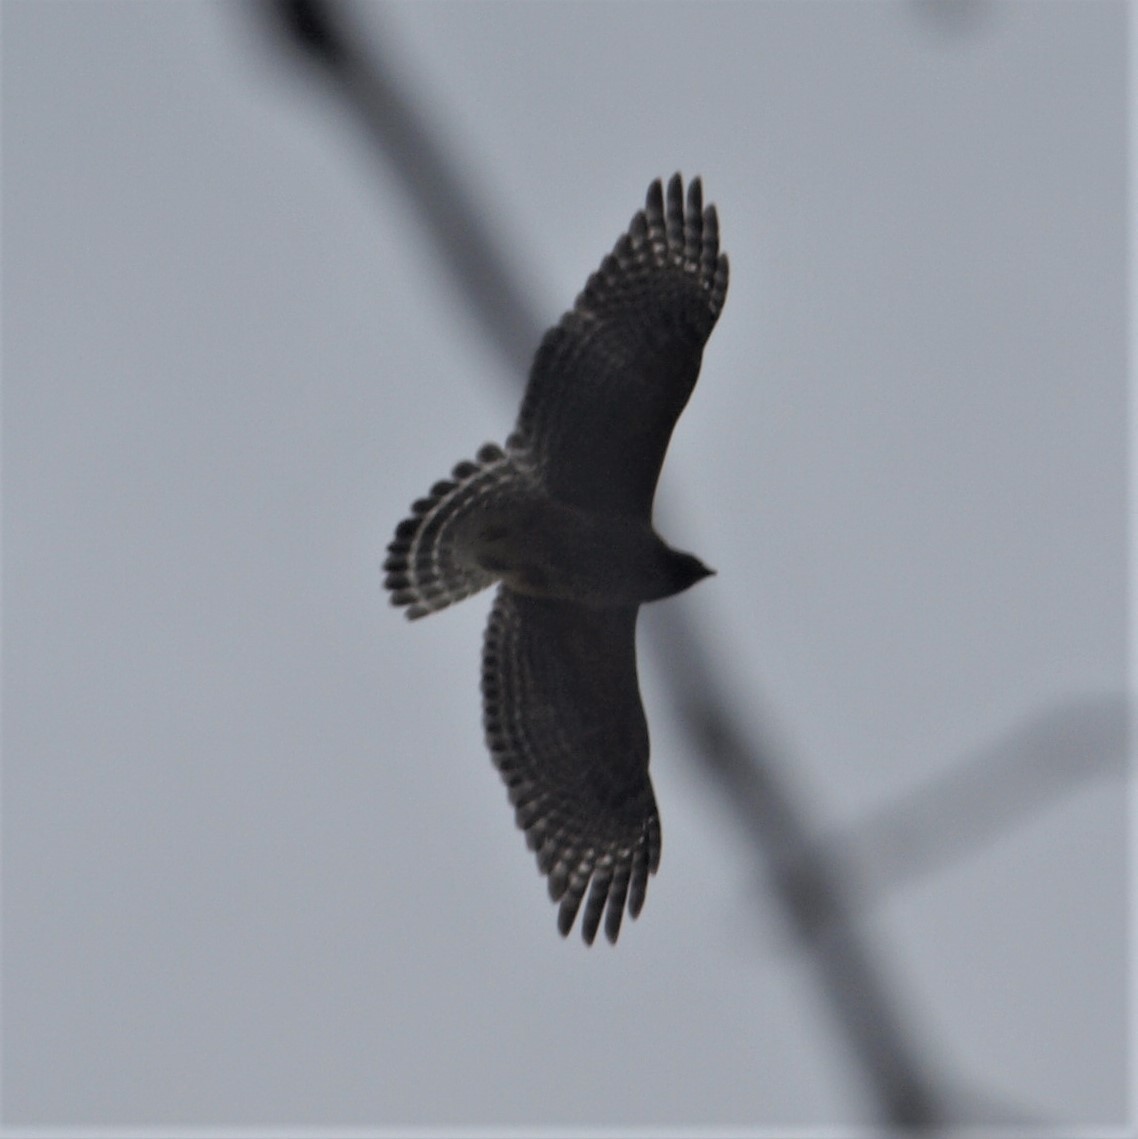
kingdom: Animalia
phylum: Chordata
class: Aves
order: Accipitriformes
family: Accipitridae
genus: Buteo
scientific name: Buteo lineatus
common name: Red-shouldered hawk
